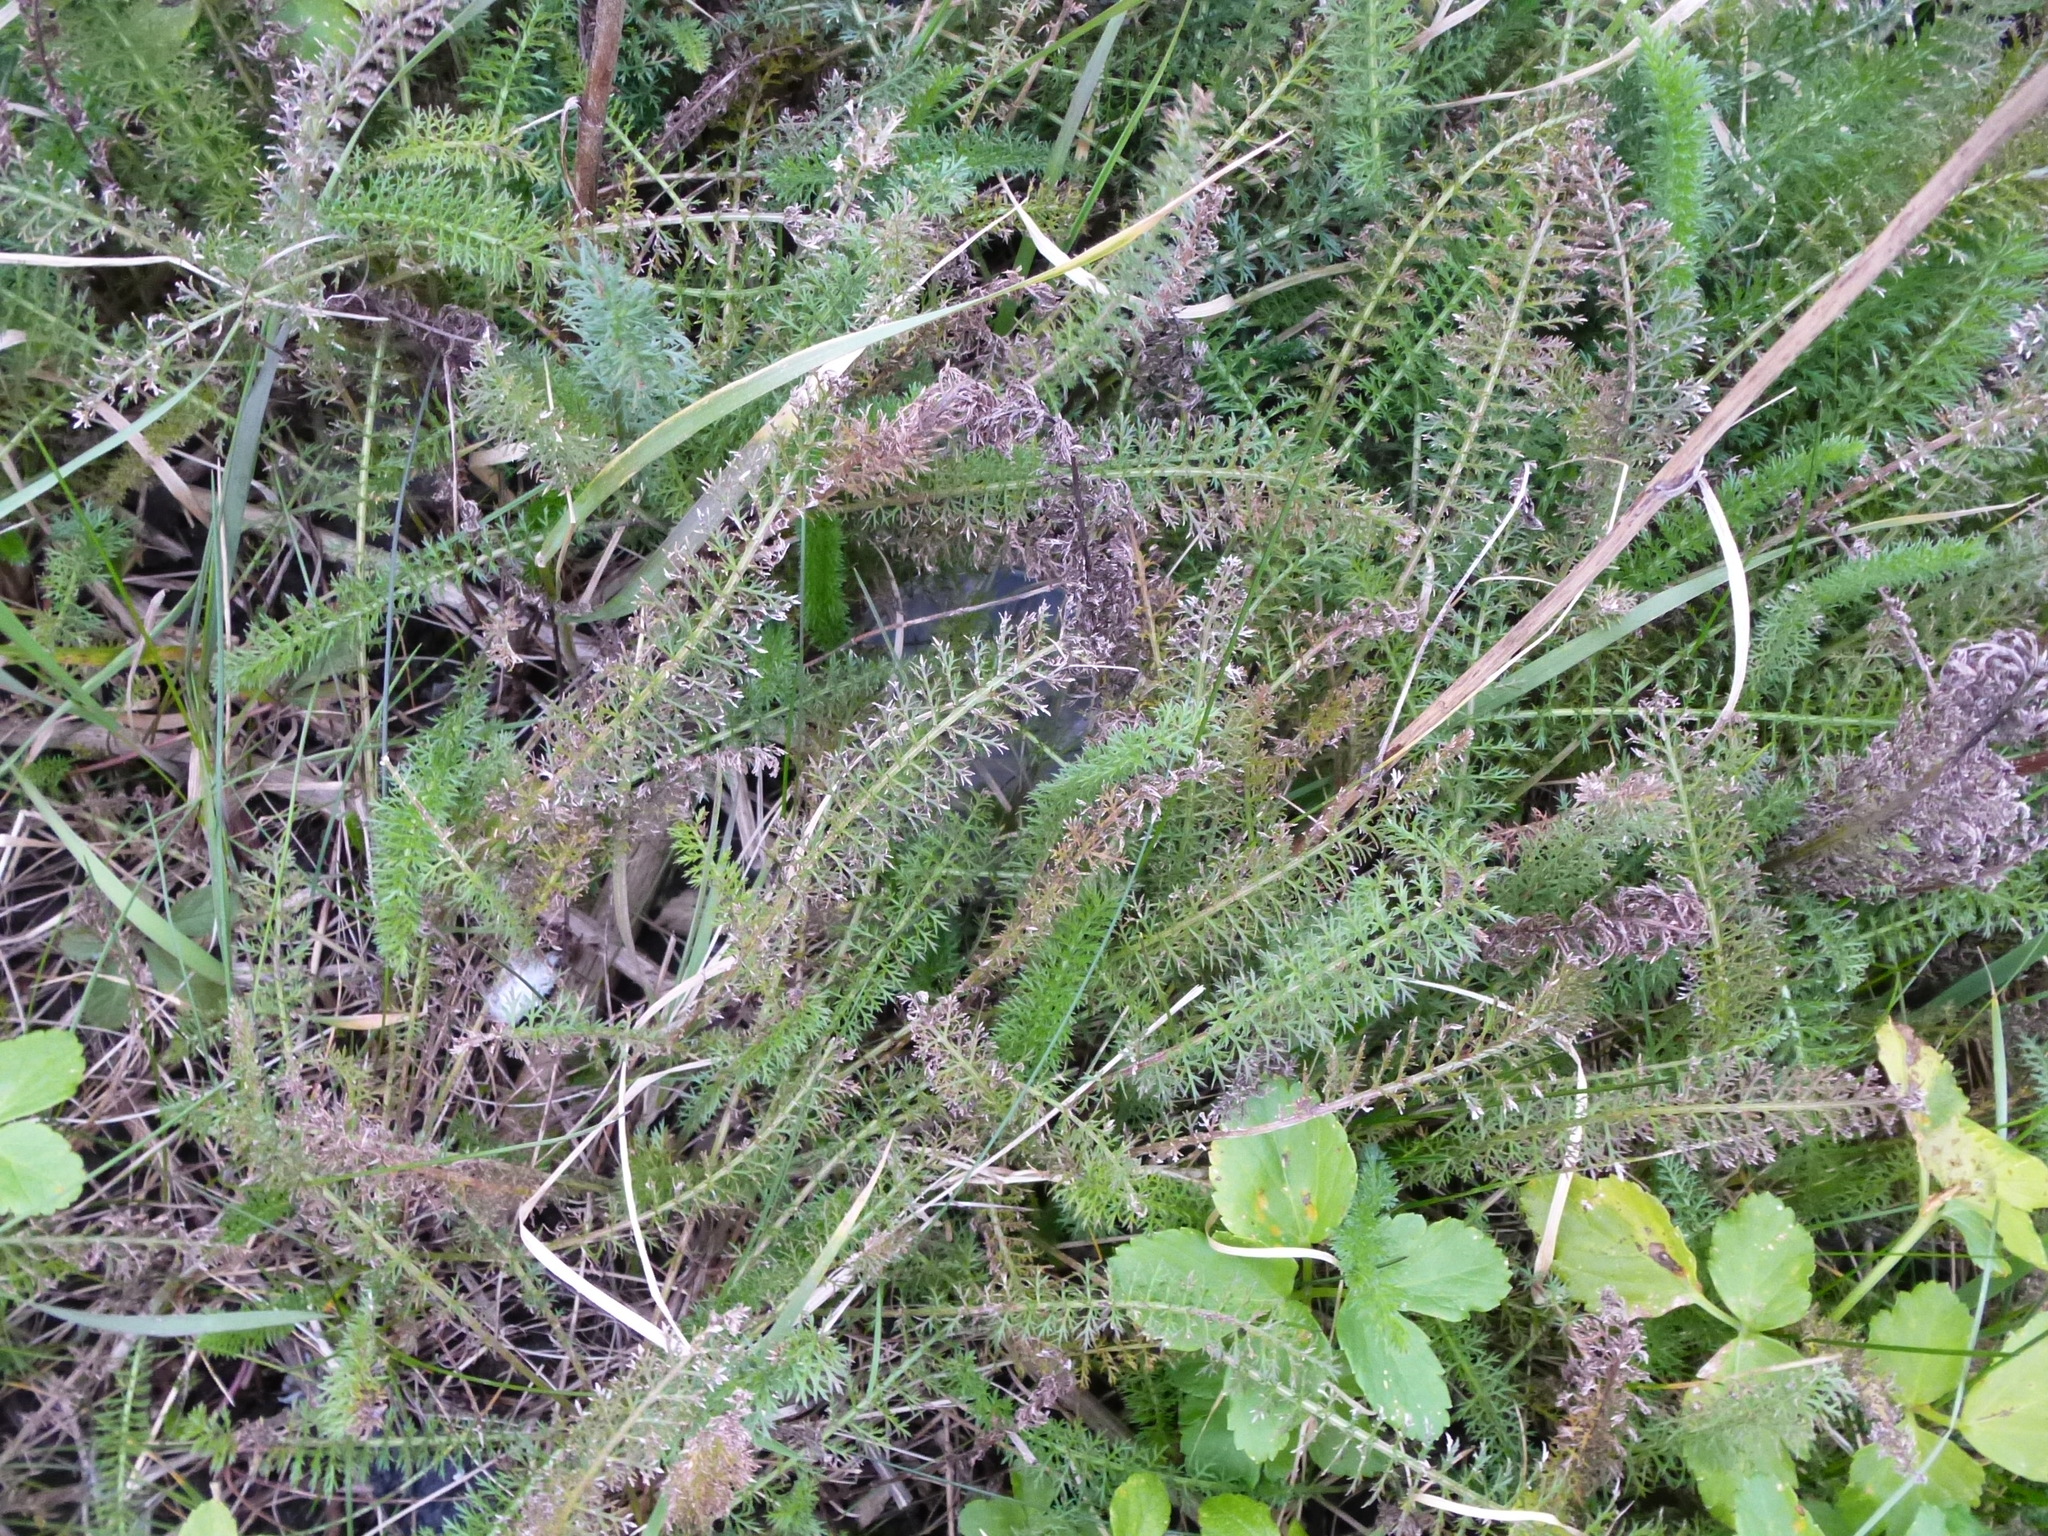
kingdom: Plantae
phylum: Tracheophyta
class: Magnoliopsida
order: Asterales
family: Asteraceae
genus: Achillea
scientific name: Achillea millefolium
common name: Yarrow
